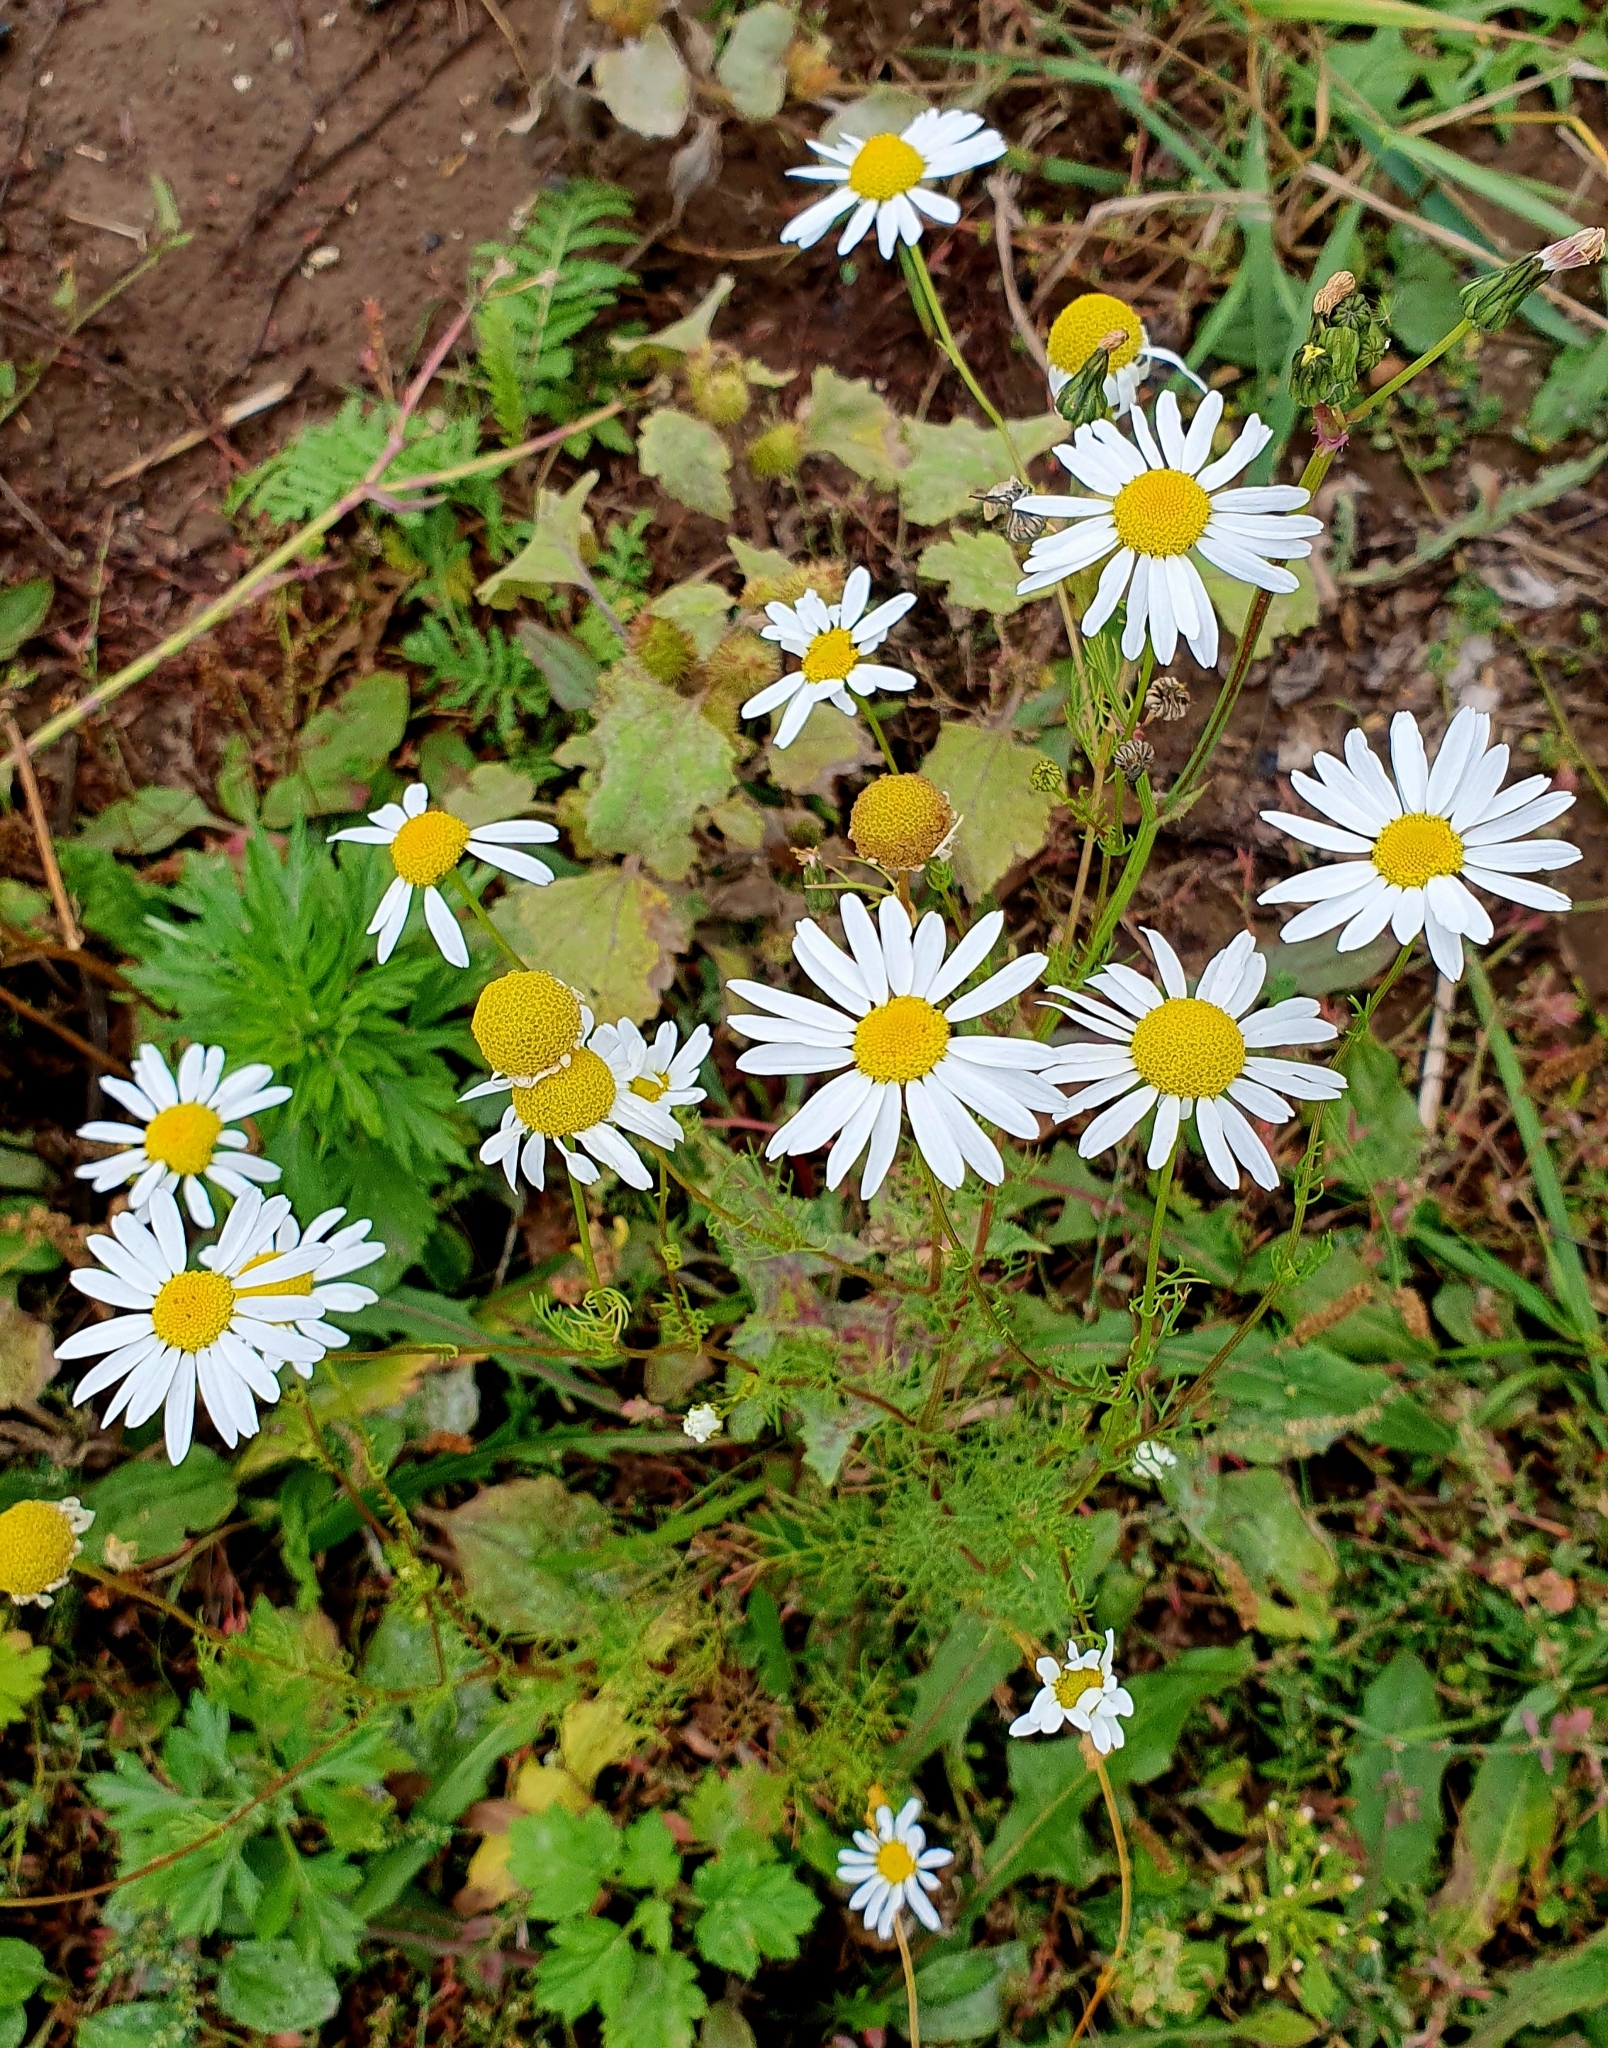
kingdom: Plantae
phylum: Tracheophyta
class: Magnoliopsida
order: Asterales
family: Asteraceae
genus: Tripleurospermum
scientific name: Tripleurospermum inodorum
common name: Scentless mayweed
